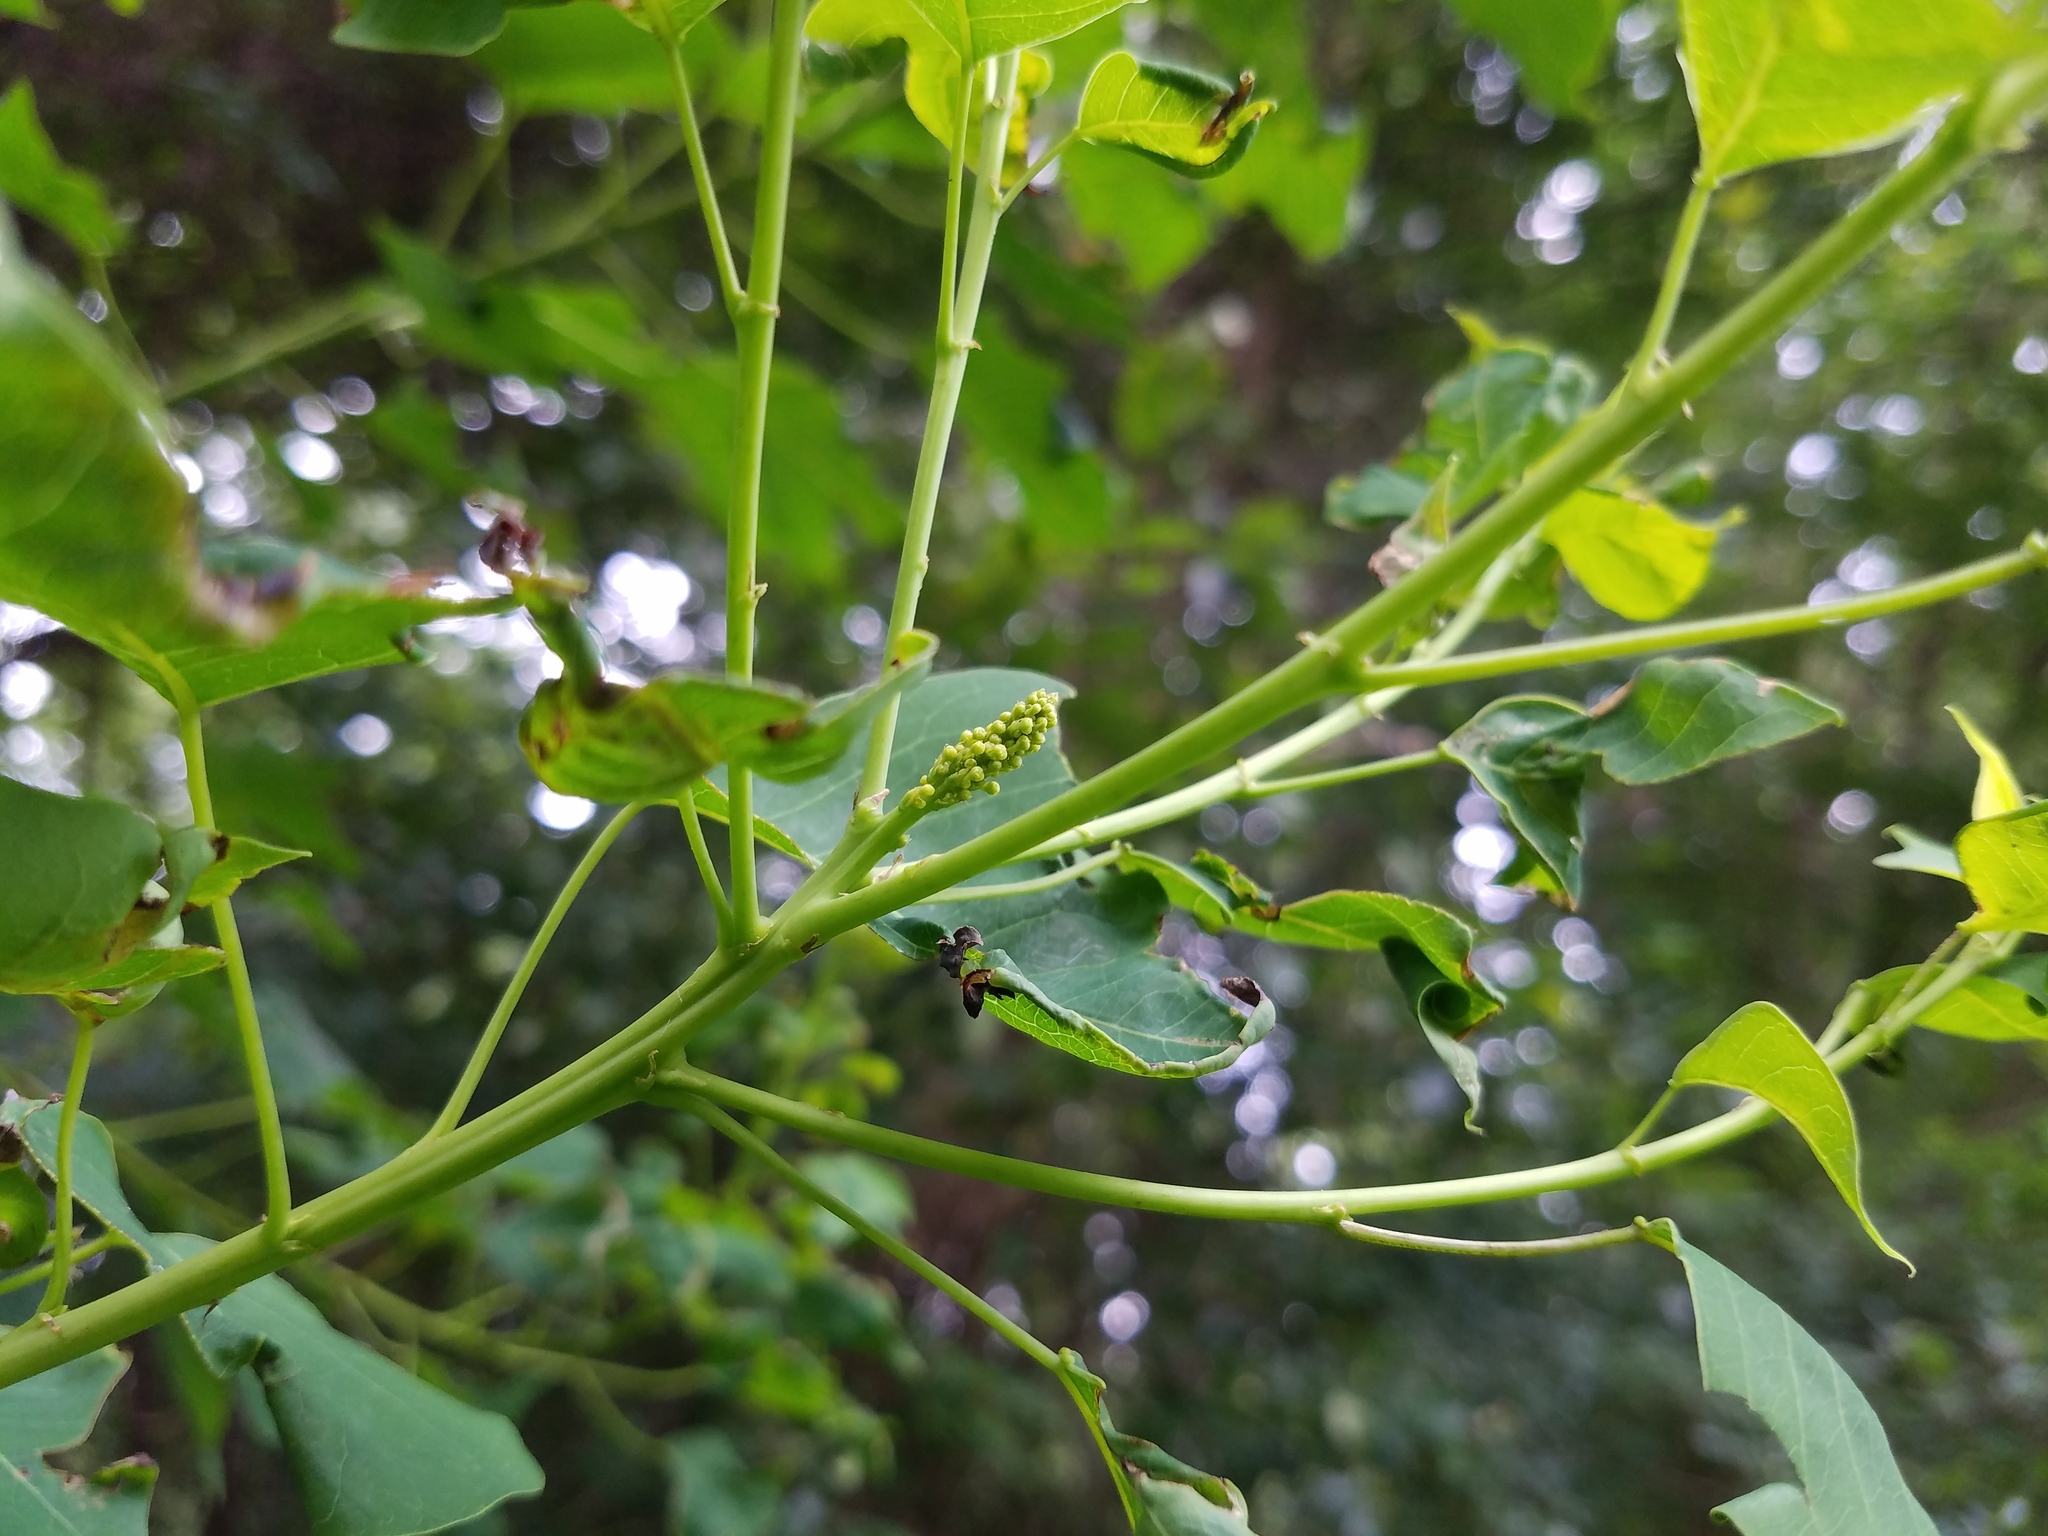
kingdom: Plantae
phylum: Tracheophyta
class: Magnoliopsida
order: Malpighiales
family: Euphorbiaceae
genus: Triadica
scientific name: Triadica sebifera
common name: Chinese tallow
